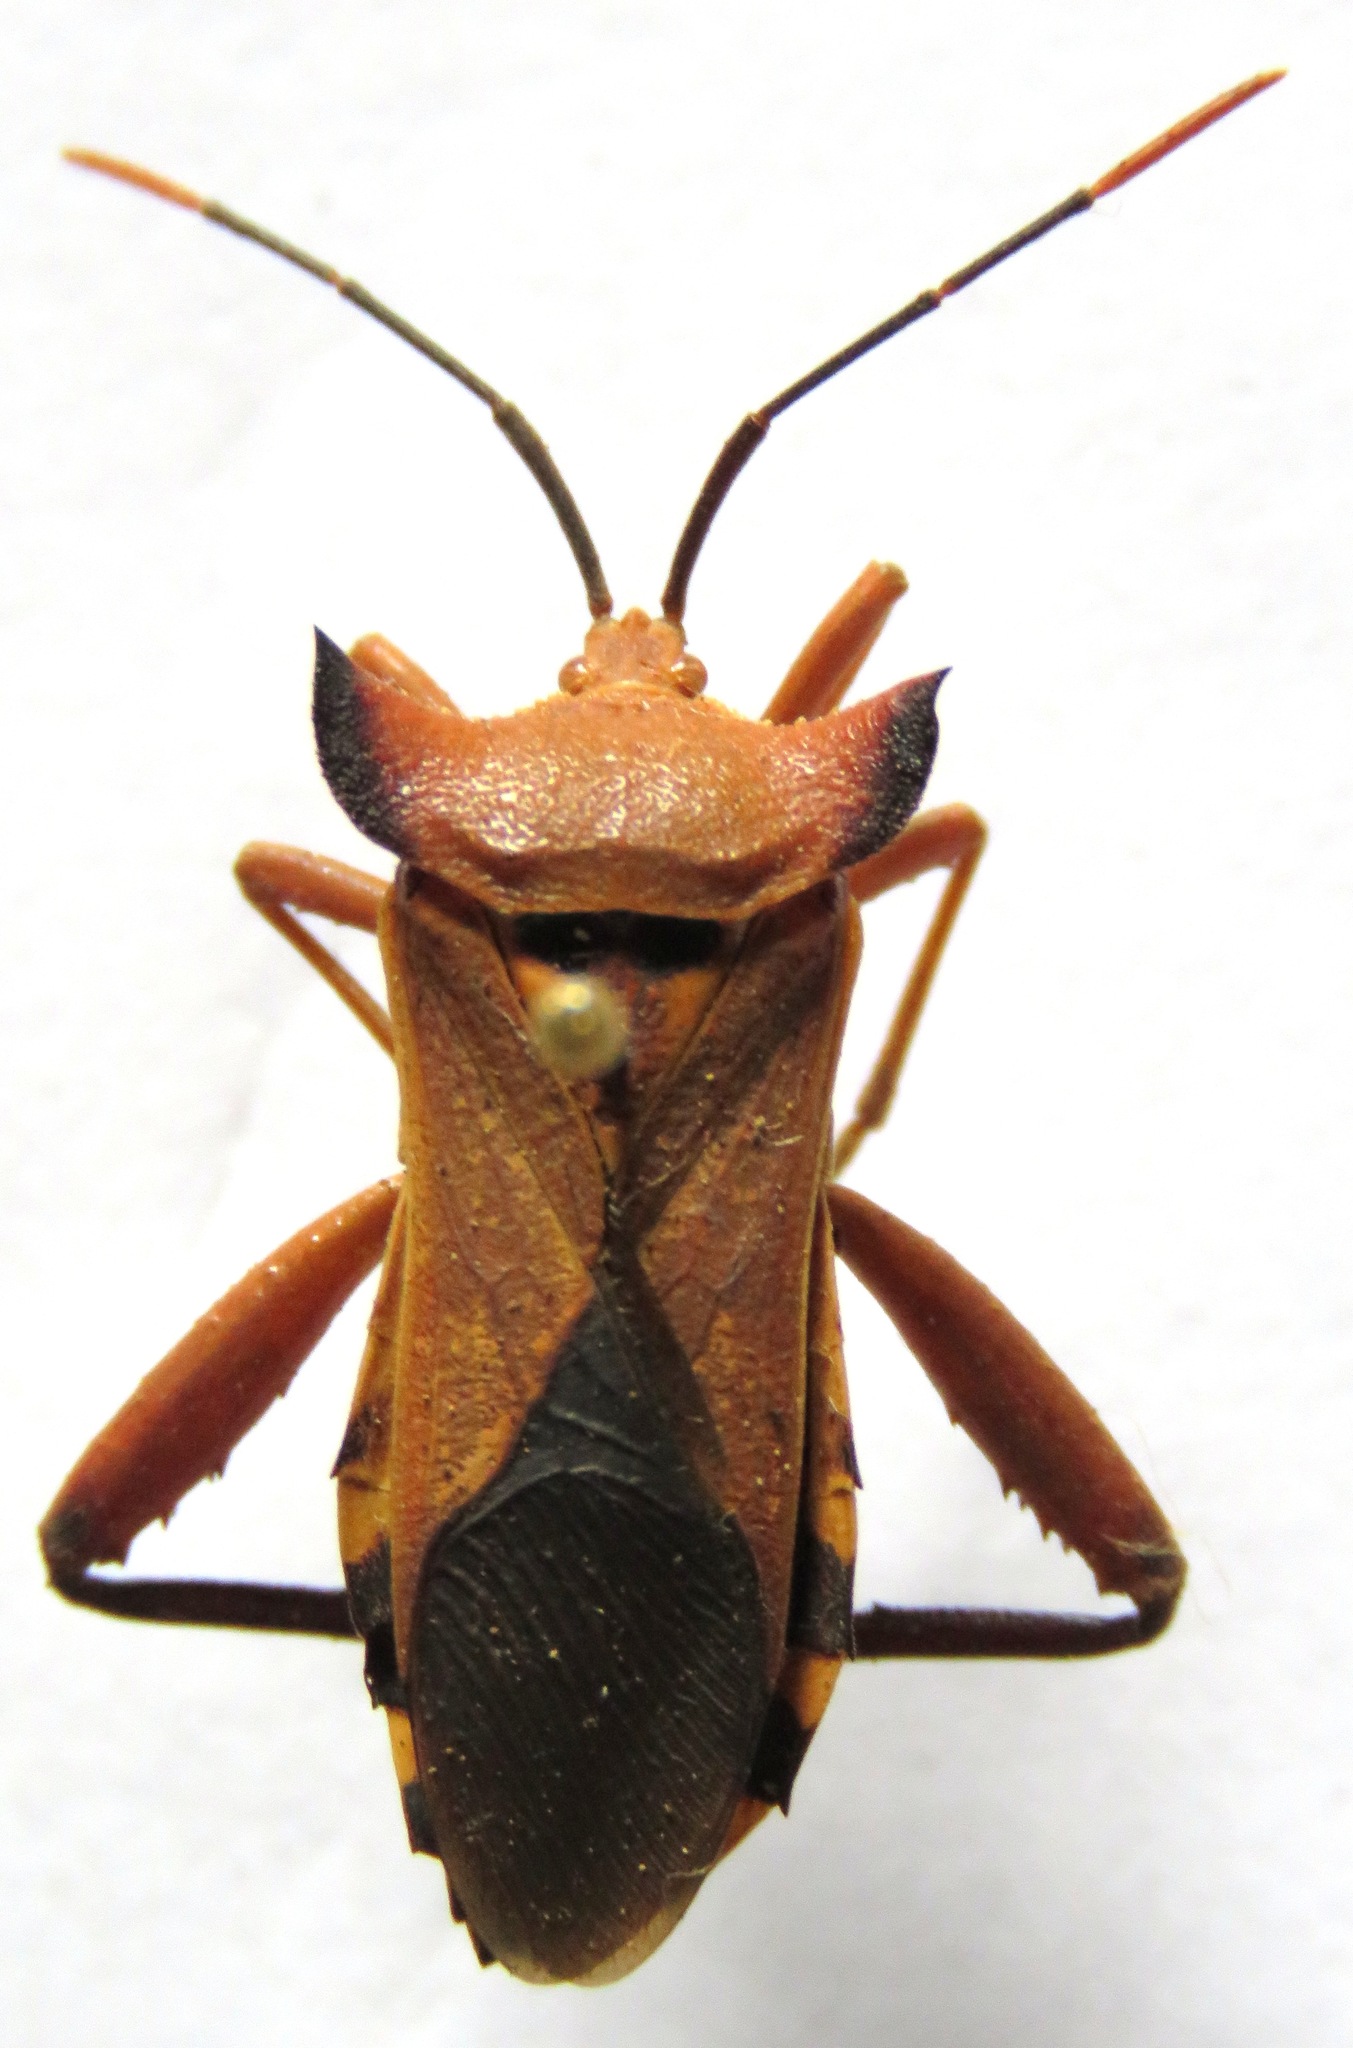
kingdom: Animalia
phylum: Arthropoda
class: Insecta
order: Hemiptera
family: Coreidae
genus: Mozena
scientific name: Mozena lunata
